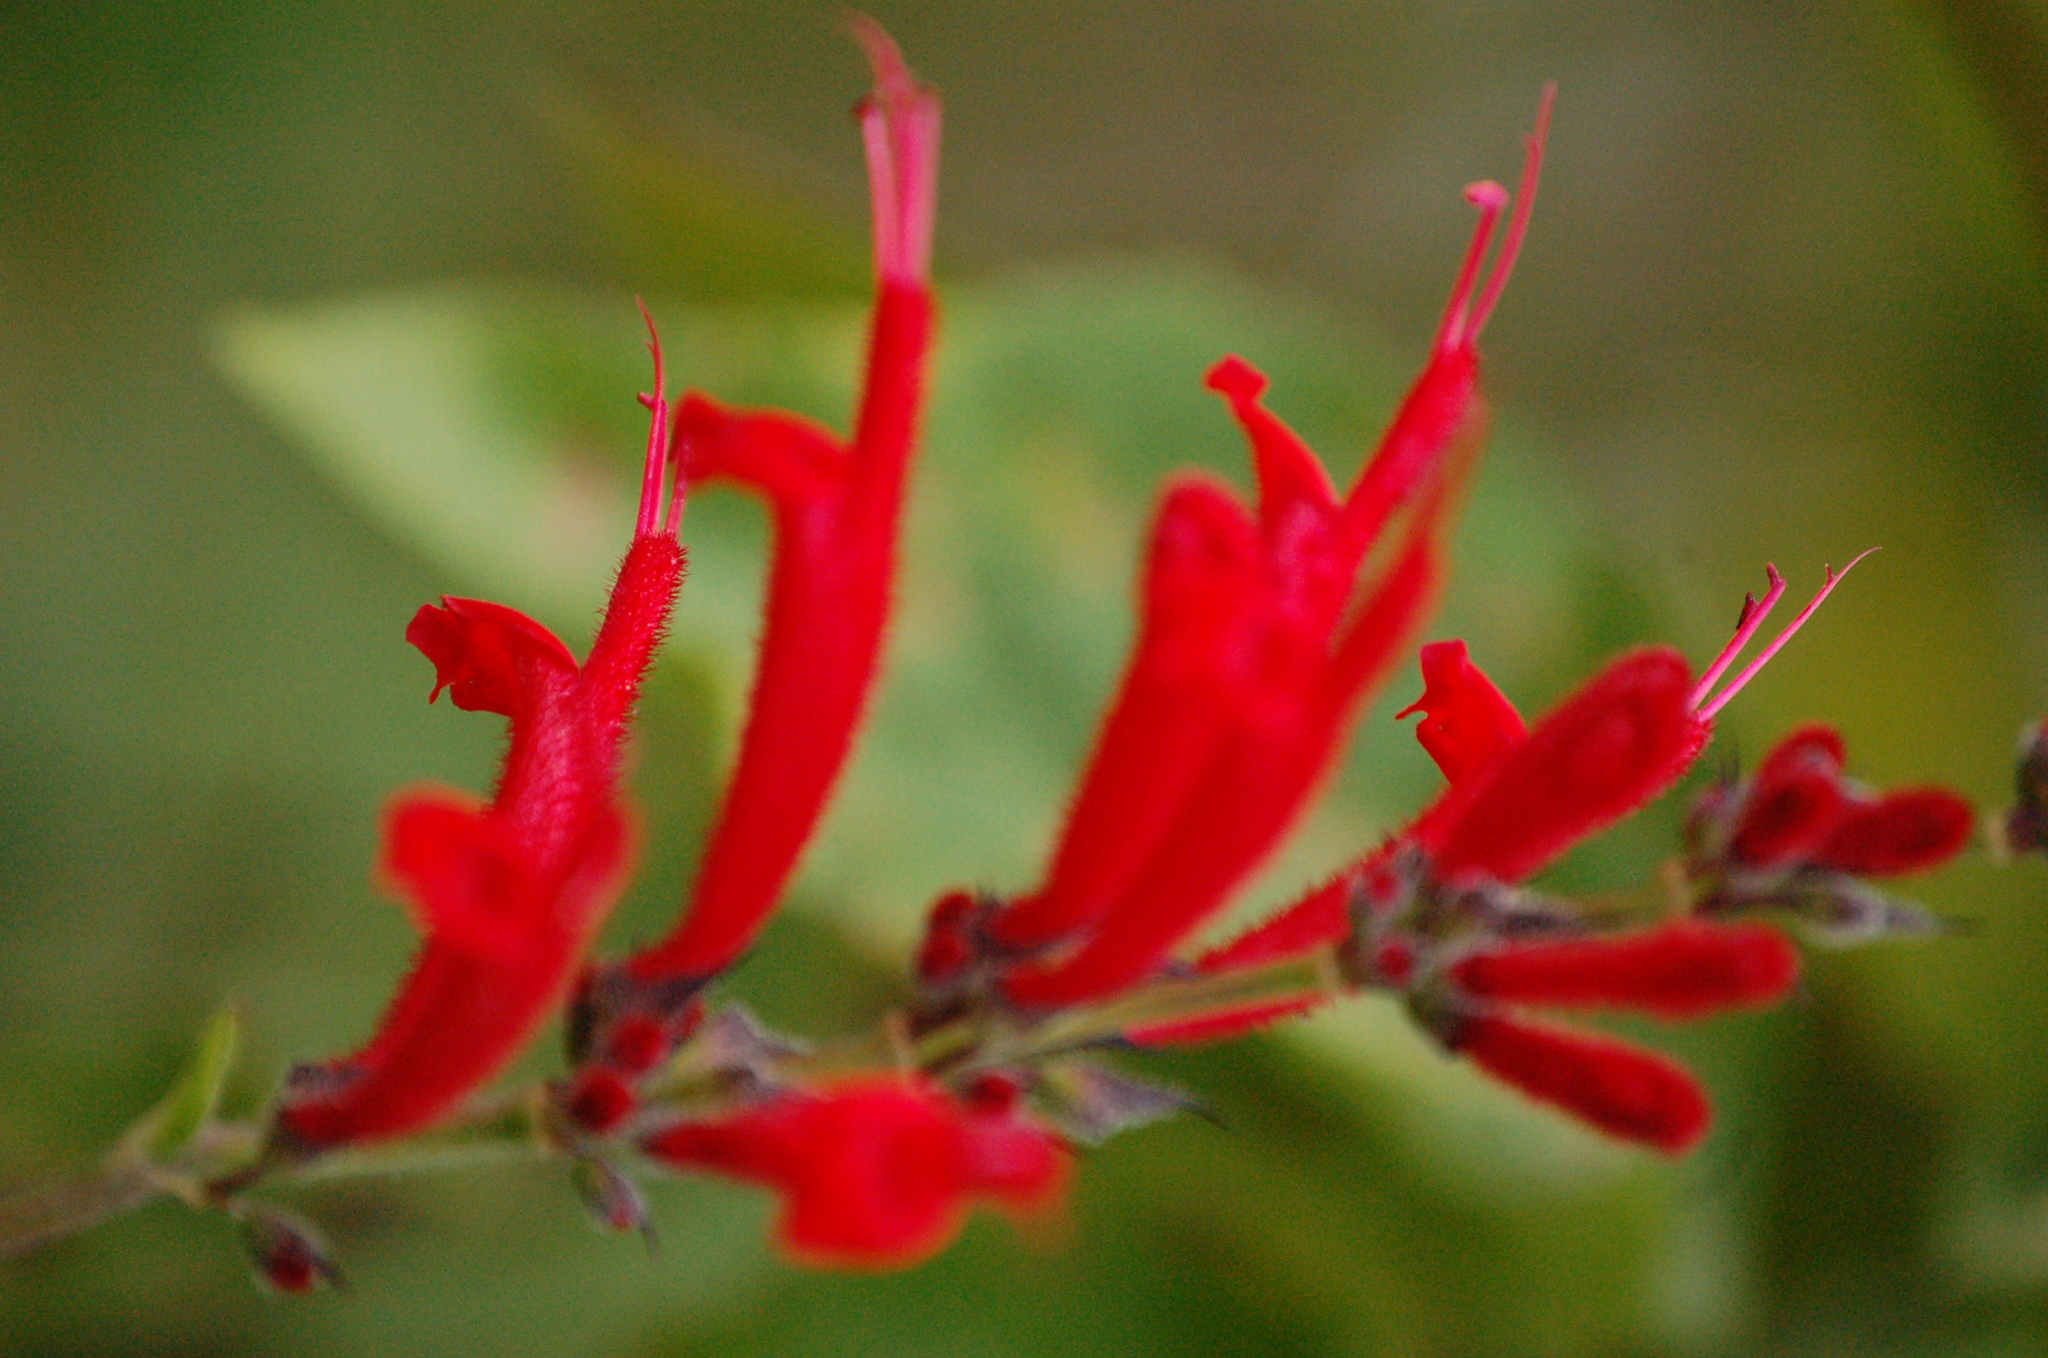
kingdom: Plantae
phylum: Tracheophyta
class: Magnoliopsida
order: Lamiales
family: Lamiaceae
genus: Salvia
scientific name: Salvia cinnabarina
